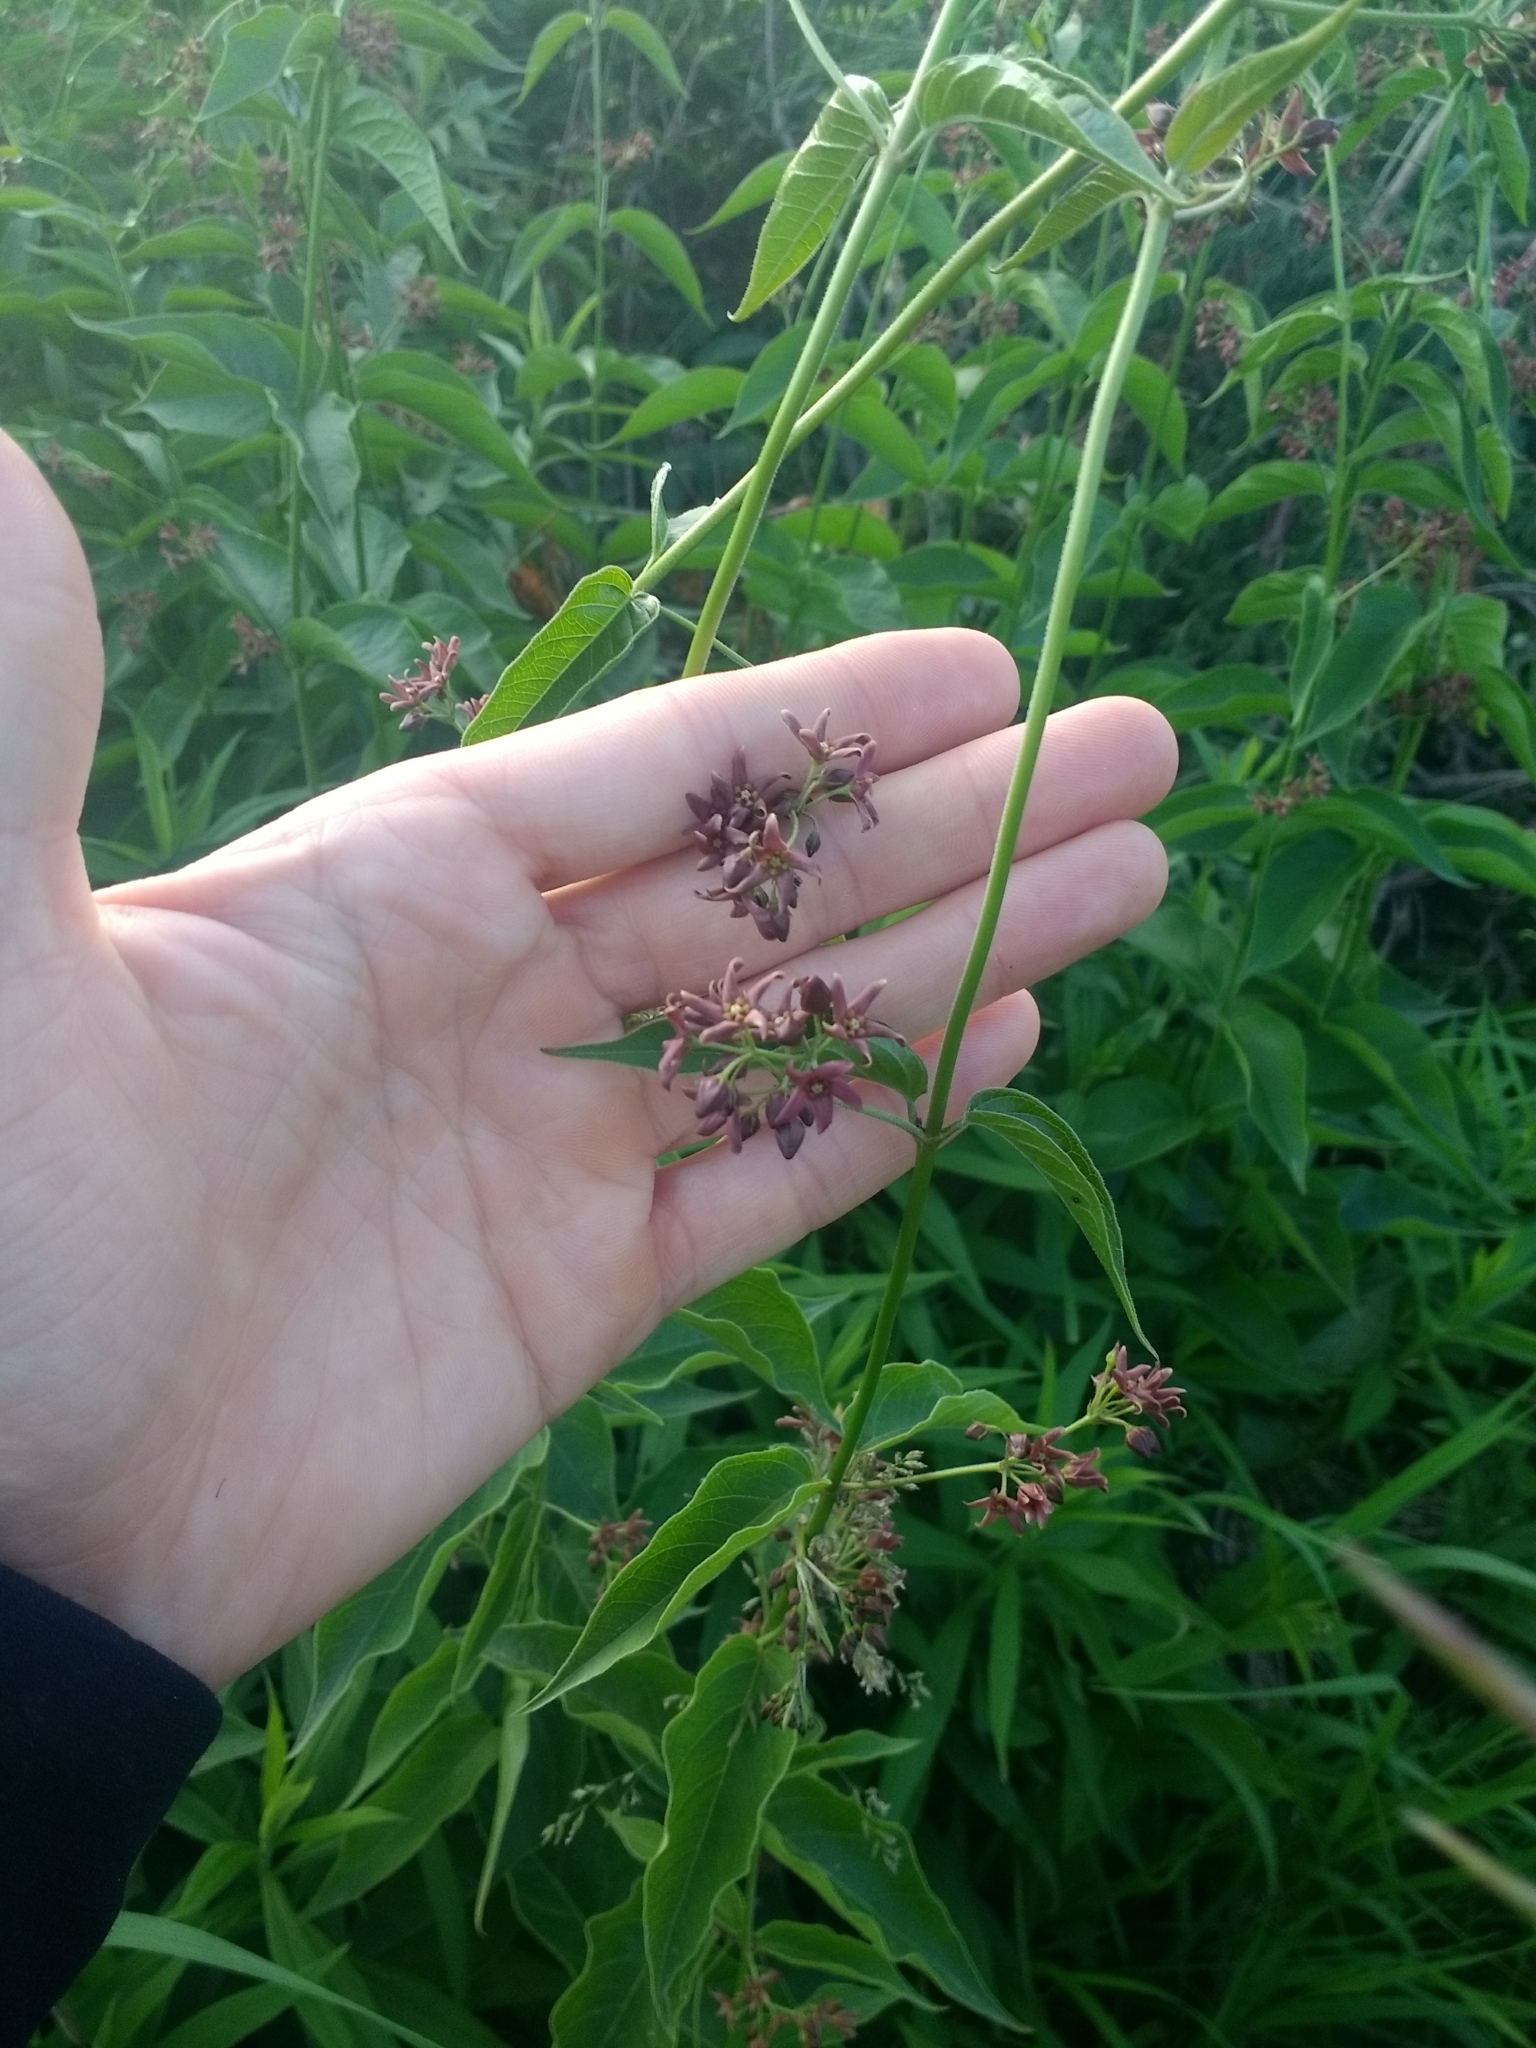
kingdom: Plantae
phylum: Tracheophyta
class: Magnoliopsida
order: Gentianales
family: Apocynaceae
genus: Vincetoxicum
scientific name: Vincetoxicum rossicum
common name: Dog-strangling vine
